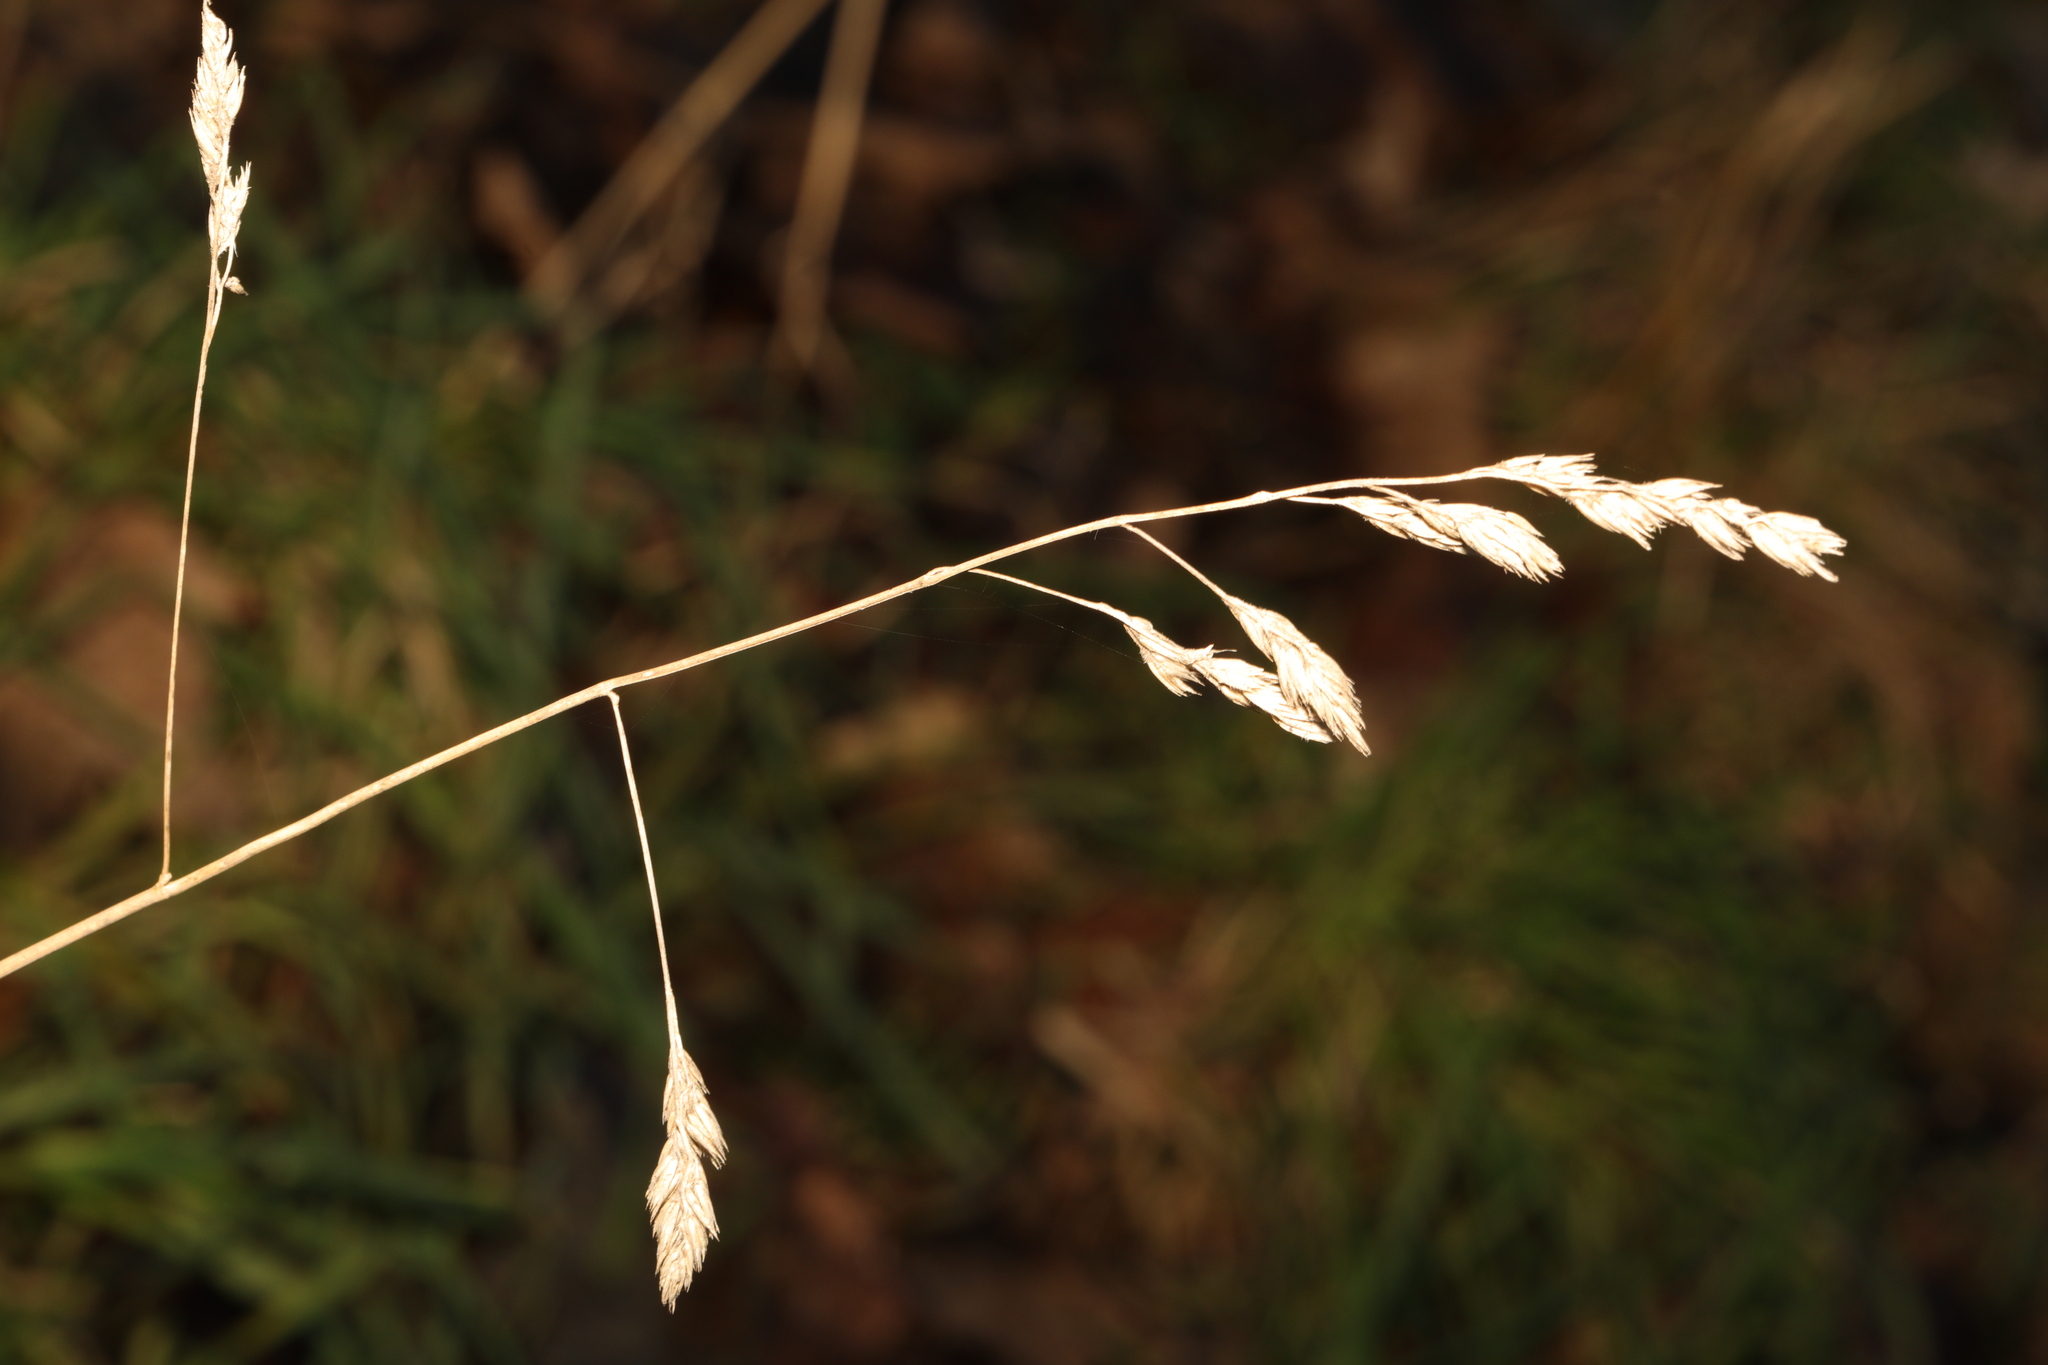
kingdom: Plantae
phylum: Tracheophyta
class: Liliopsida
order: Poales
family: Poaceae
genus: Dactylis
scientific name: Dactylis glomerata
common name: Orchardgrass
